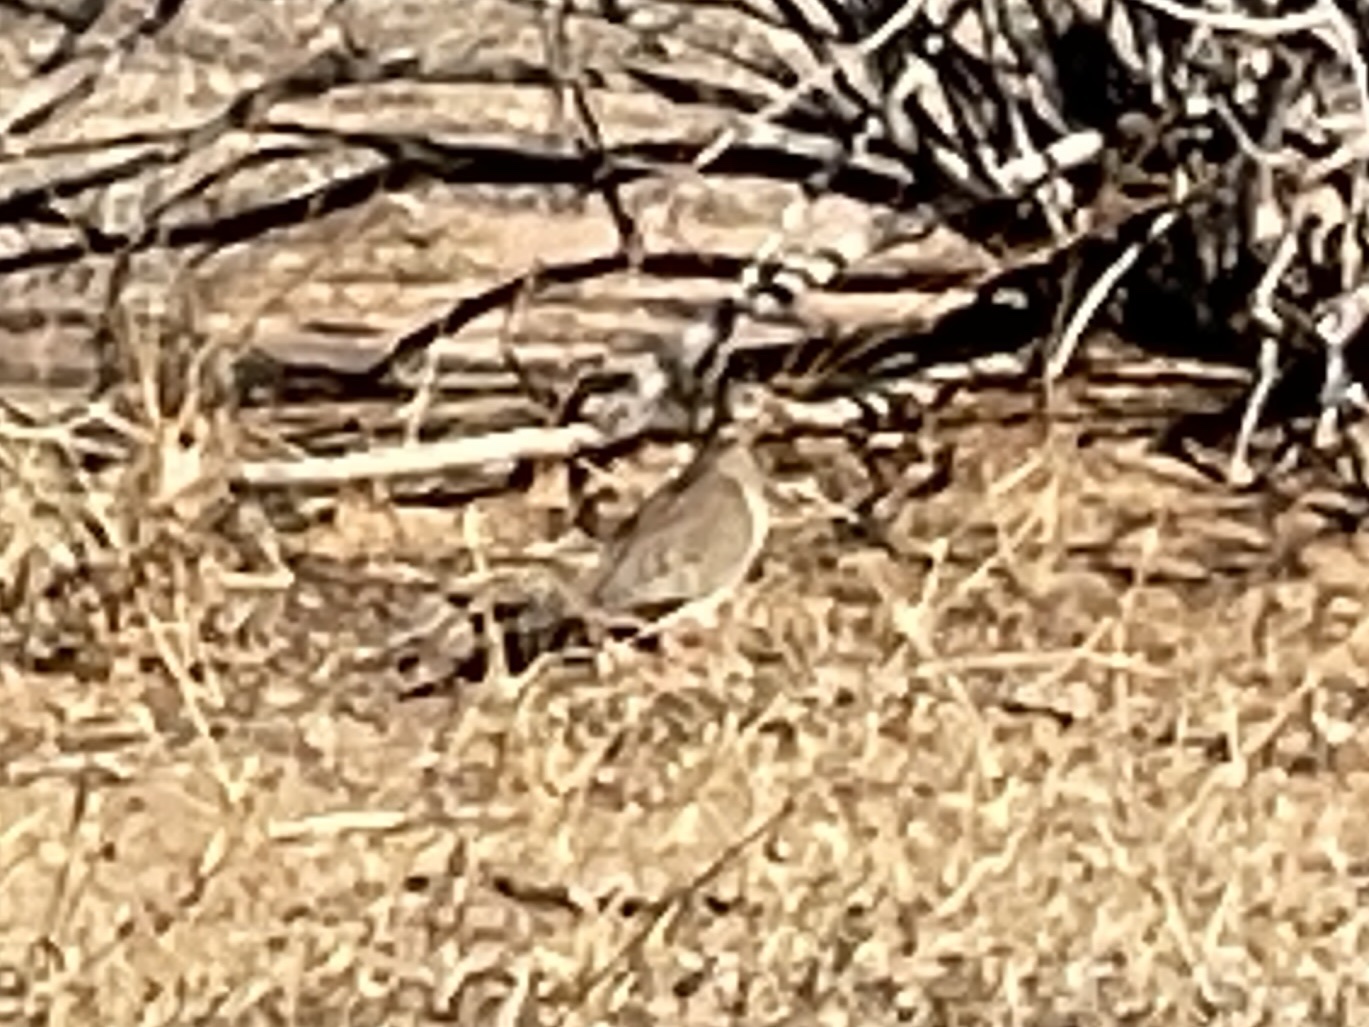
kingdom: Animalia
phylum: Chordata
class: Aves
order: Columbiformes
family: Columbidae
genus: Zenaida
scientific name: Zenaida macroura
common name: Mourning dove
